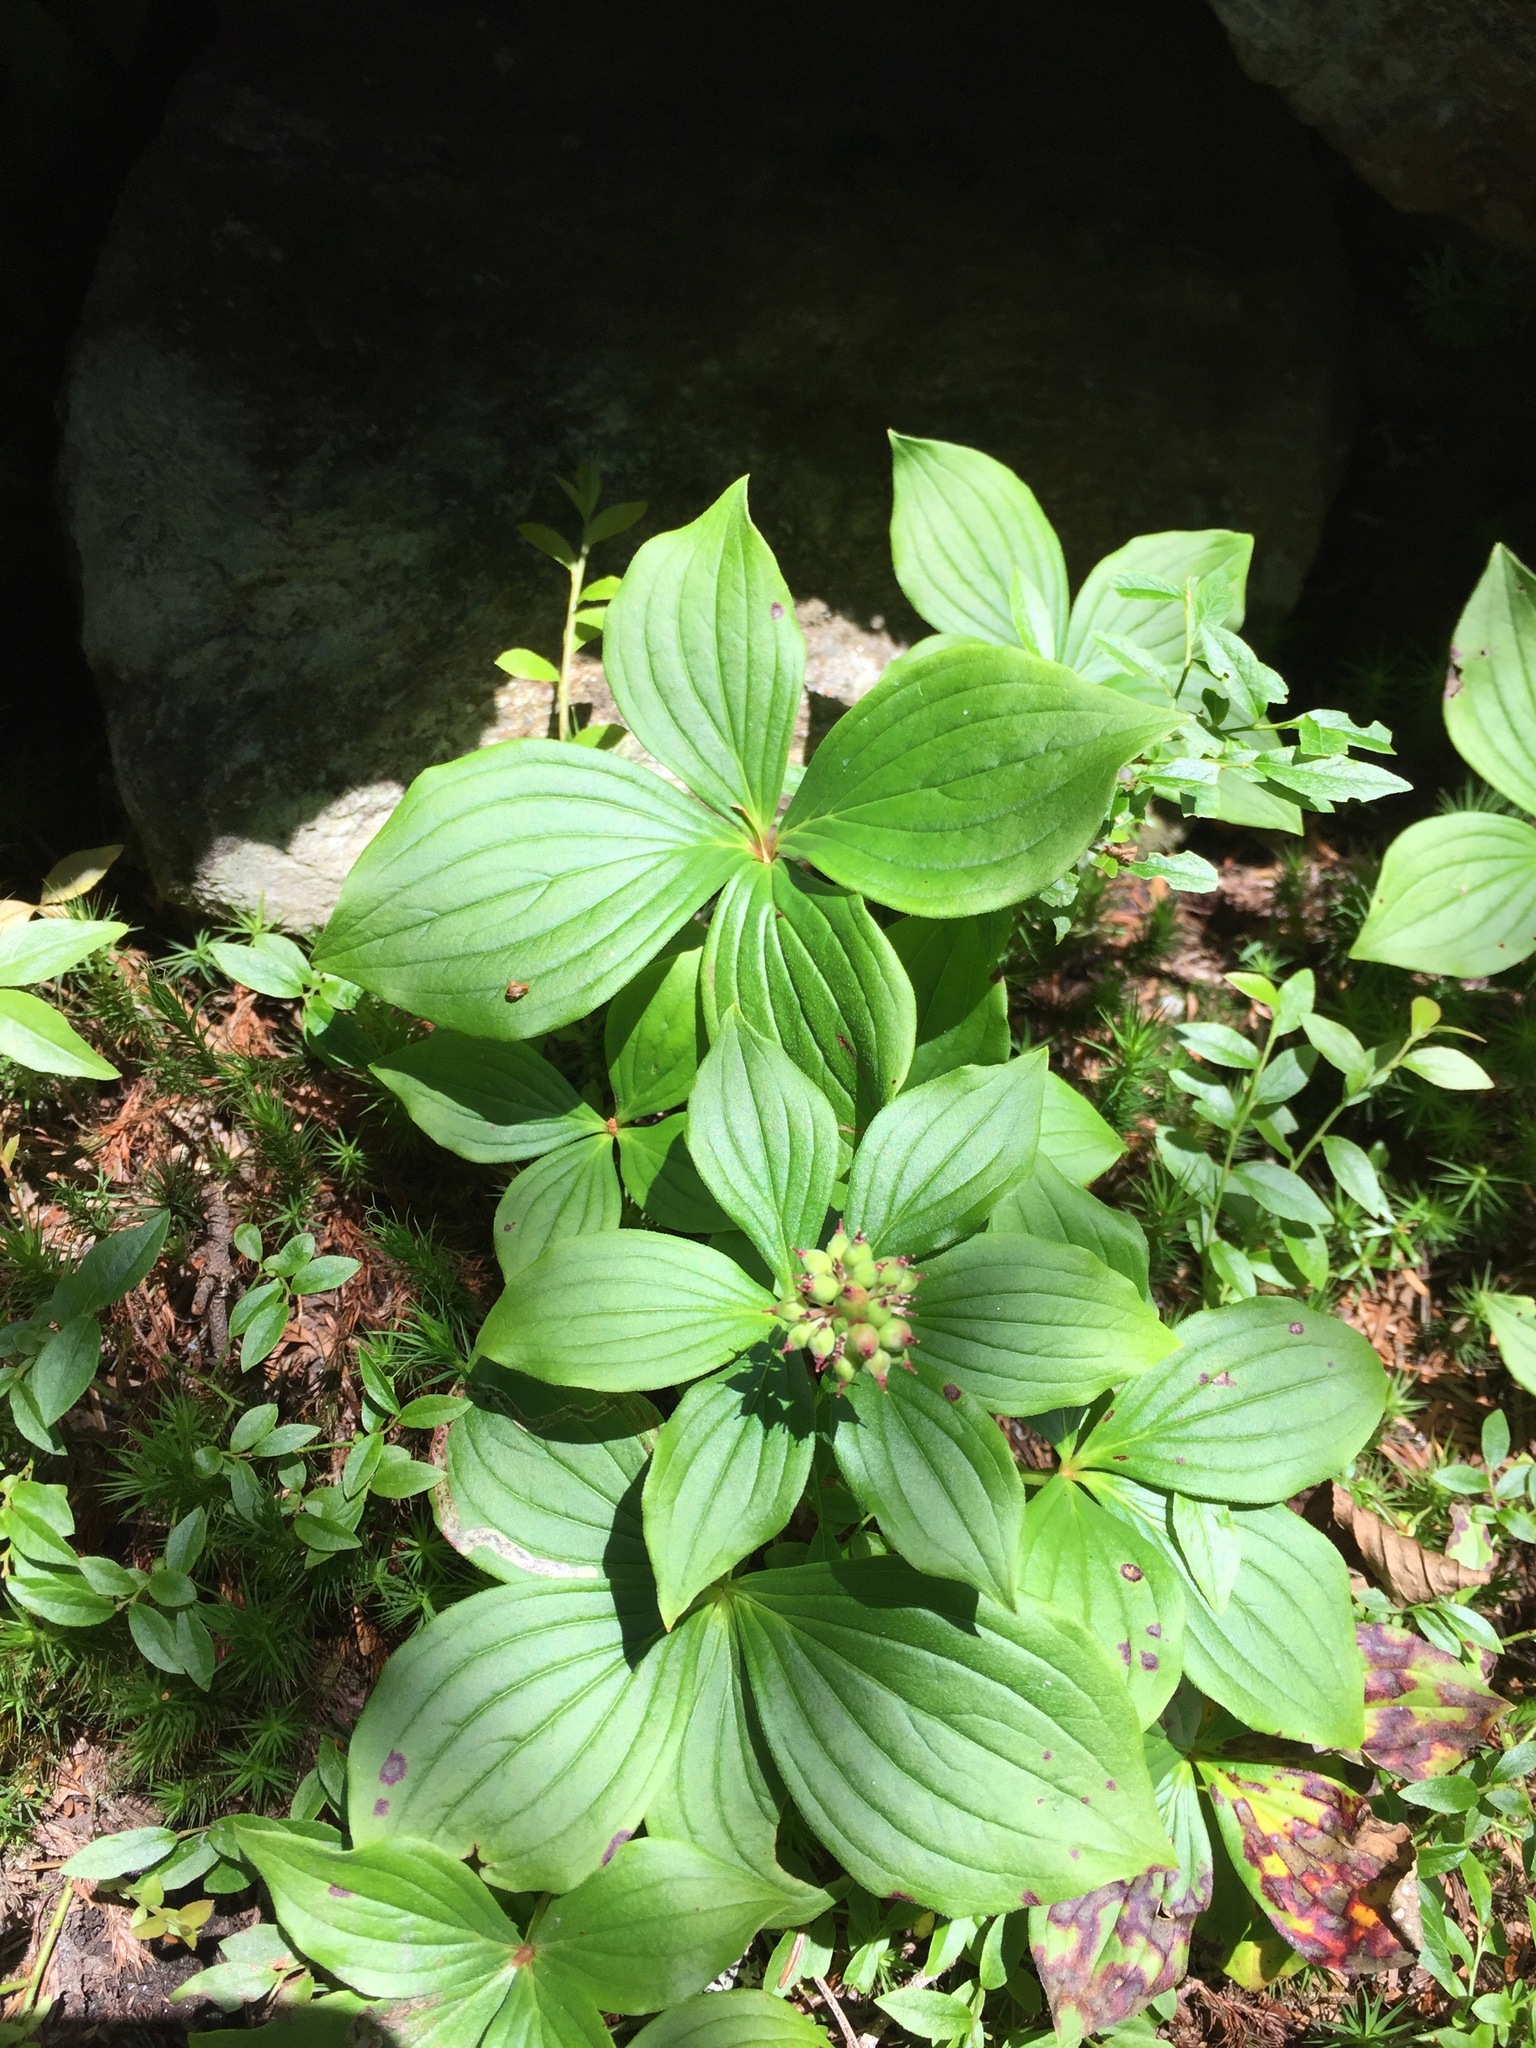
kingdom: Plantae
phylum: Tracheophyta
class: Magnoliopsida
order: Cornales
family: Cornaceae
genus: Cornus
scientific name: Cornus canadensis
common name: Creeping dogwood
